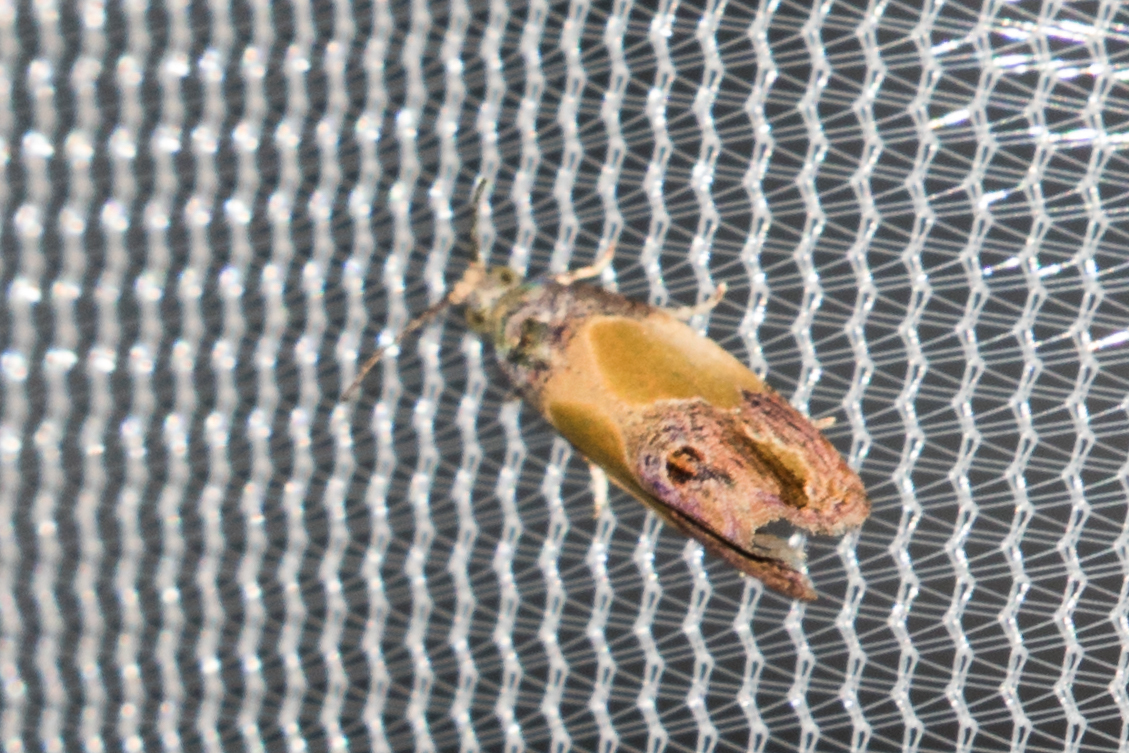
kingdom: Animalia
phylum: Arthropoda
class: Insecta
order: Lepidoptera
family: Tortricidae
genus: Eumarozia
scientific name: Eumarozia malachitana
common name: Sculptured moth
